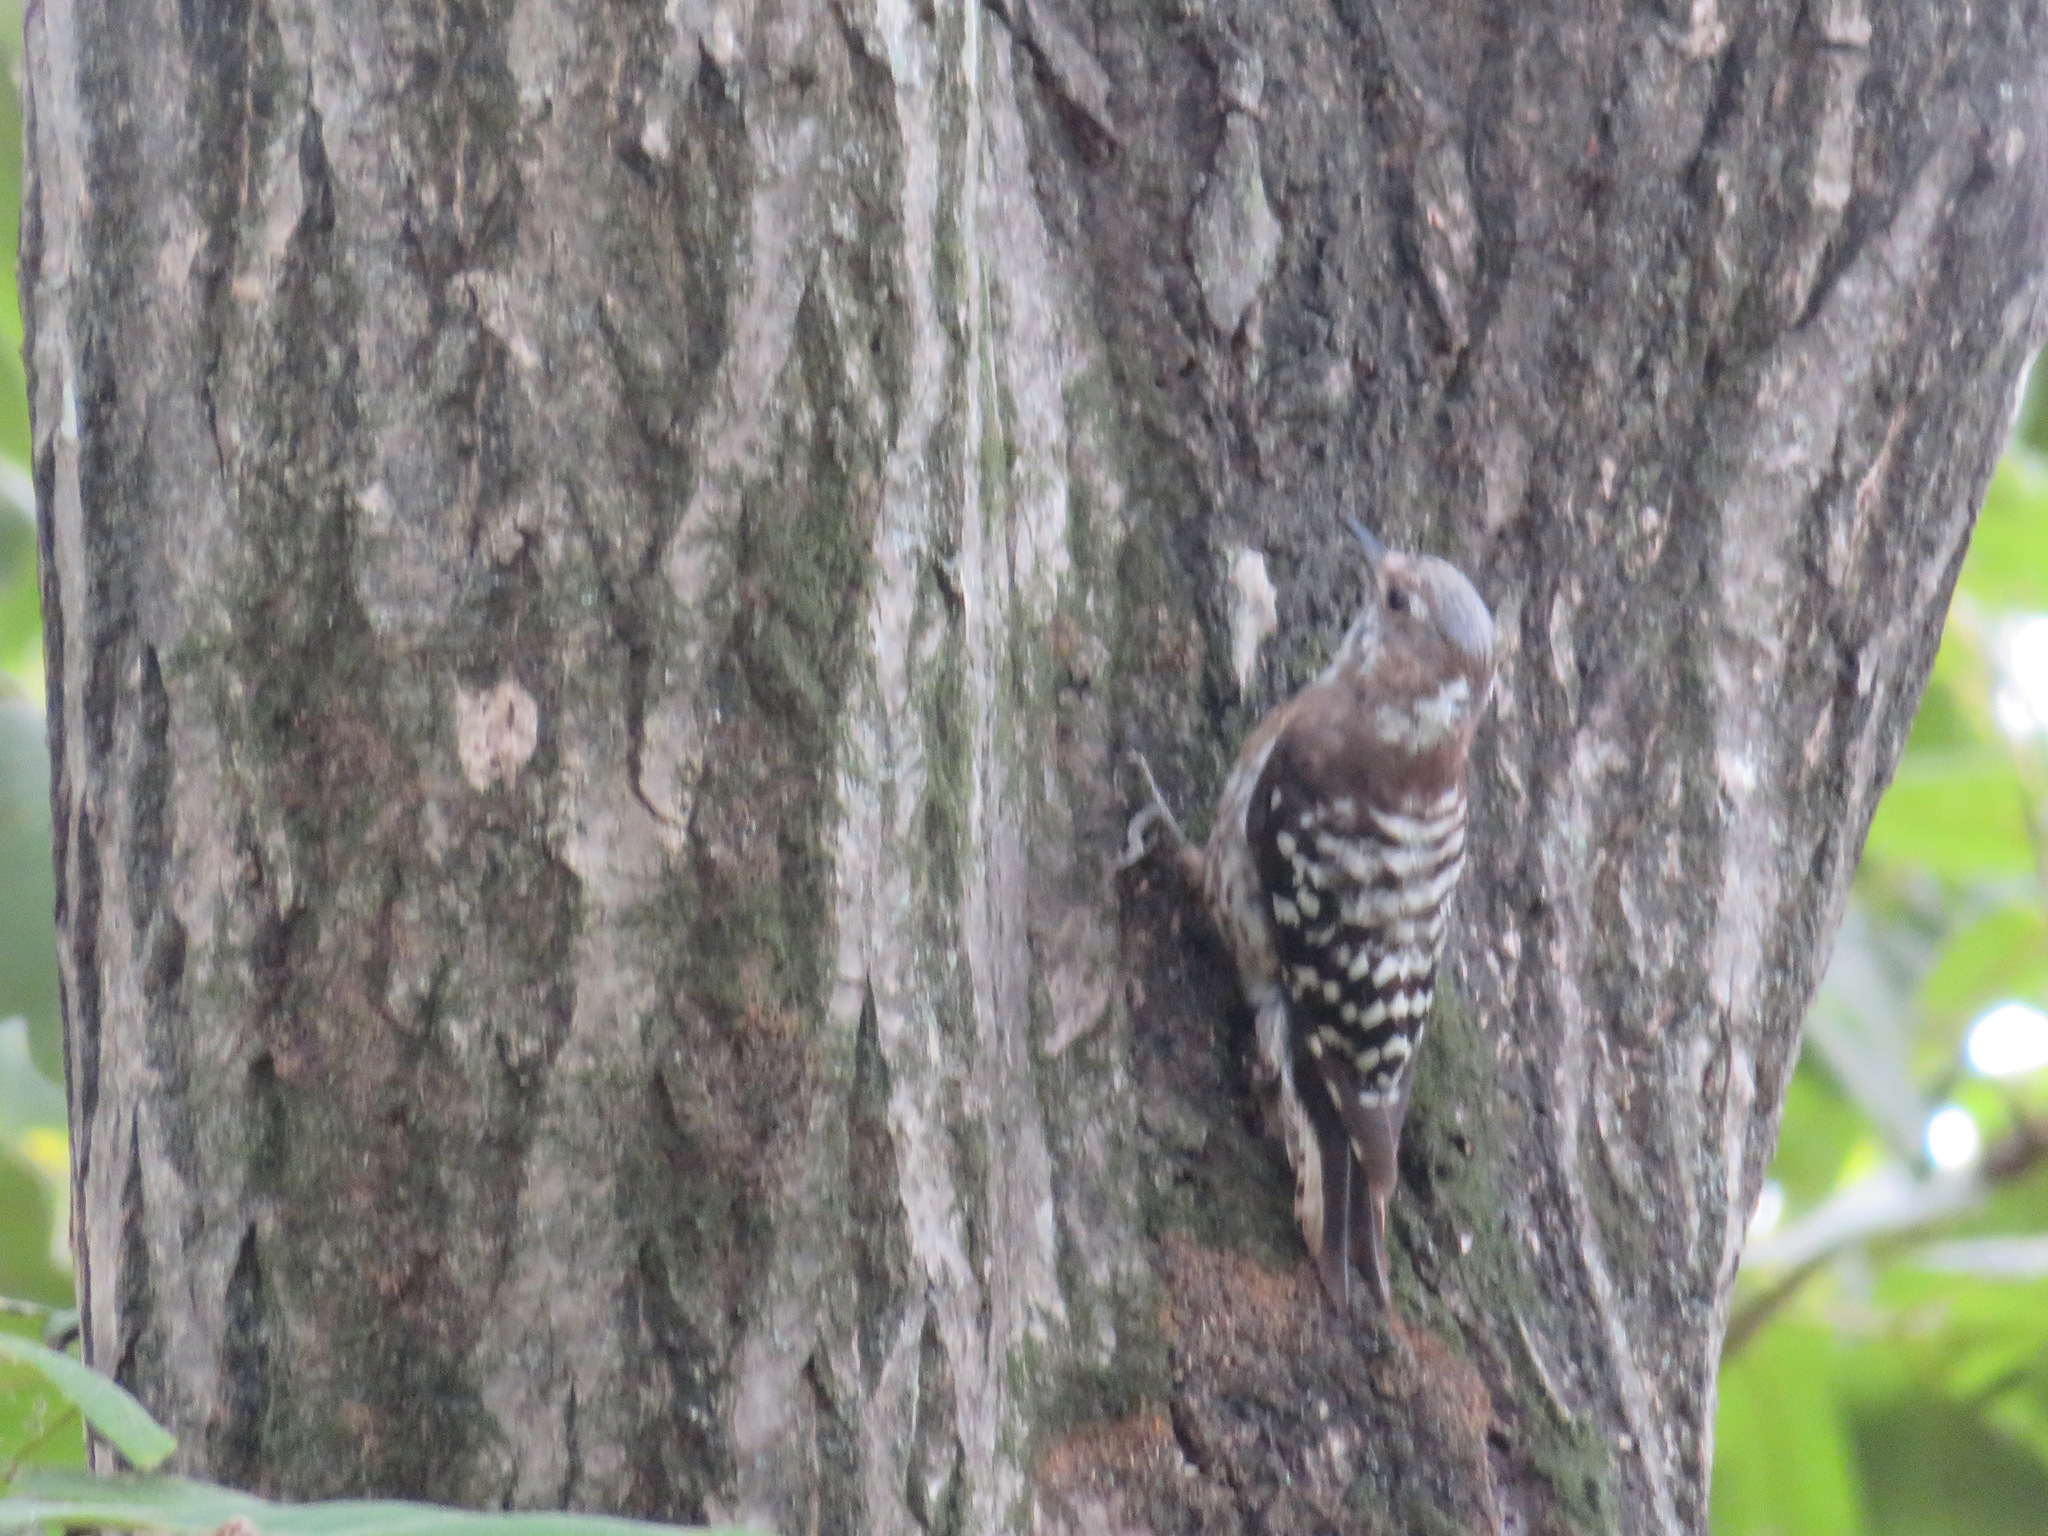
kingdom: Animalia
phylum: Chordata
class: Aves
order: Piciformes
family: Picidae
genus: Yungipicus
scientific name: Yungipicus kizuki
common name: Japanese pygmy woodpecker
